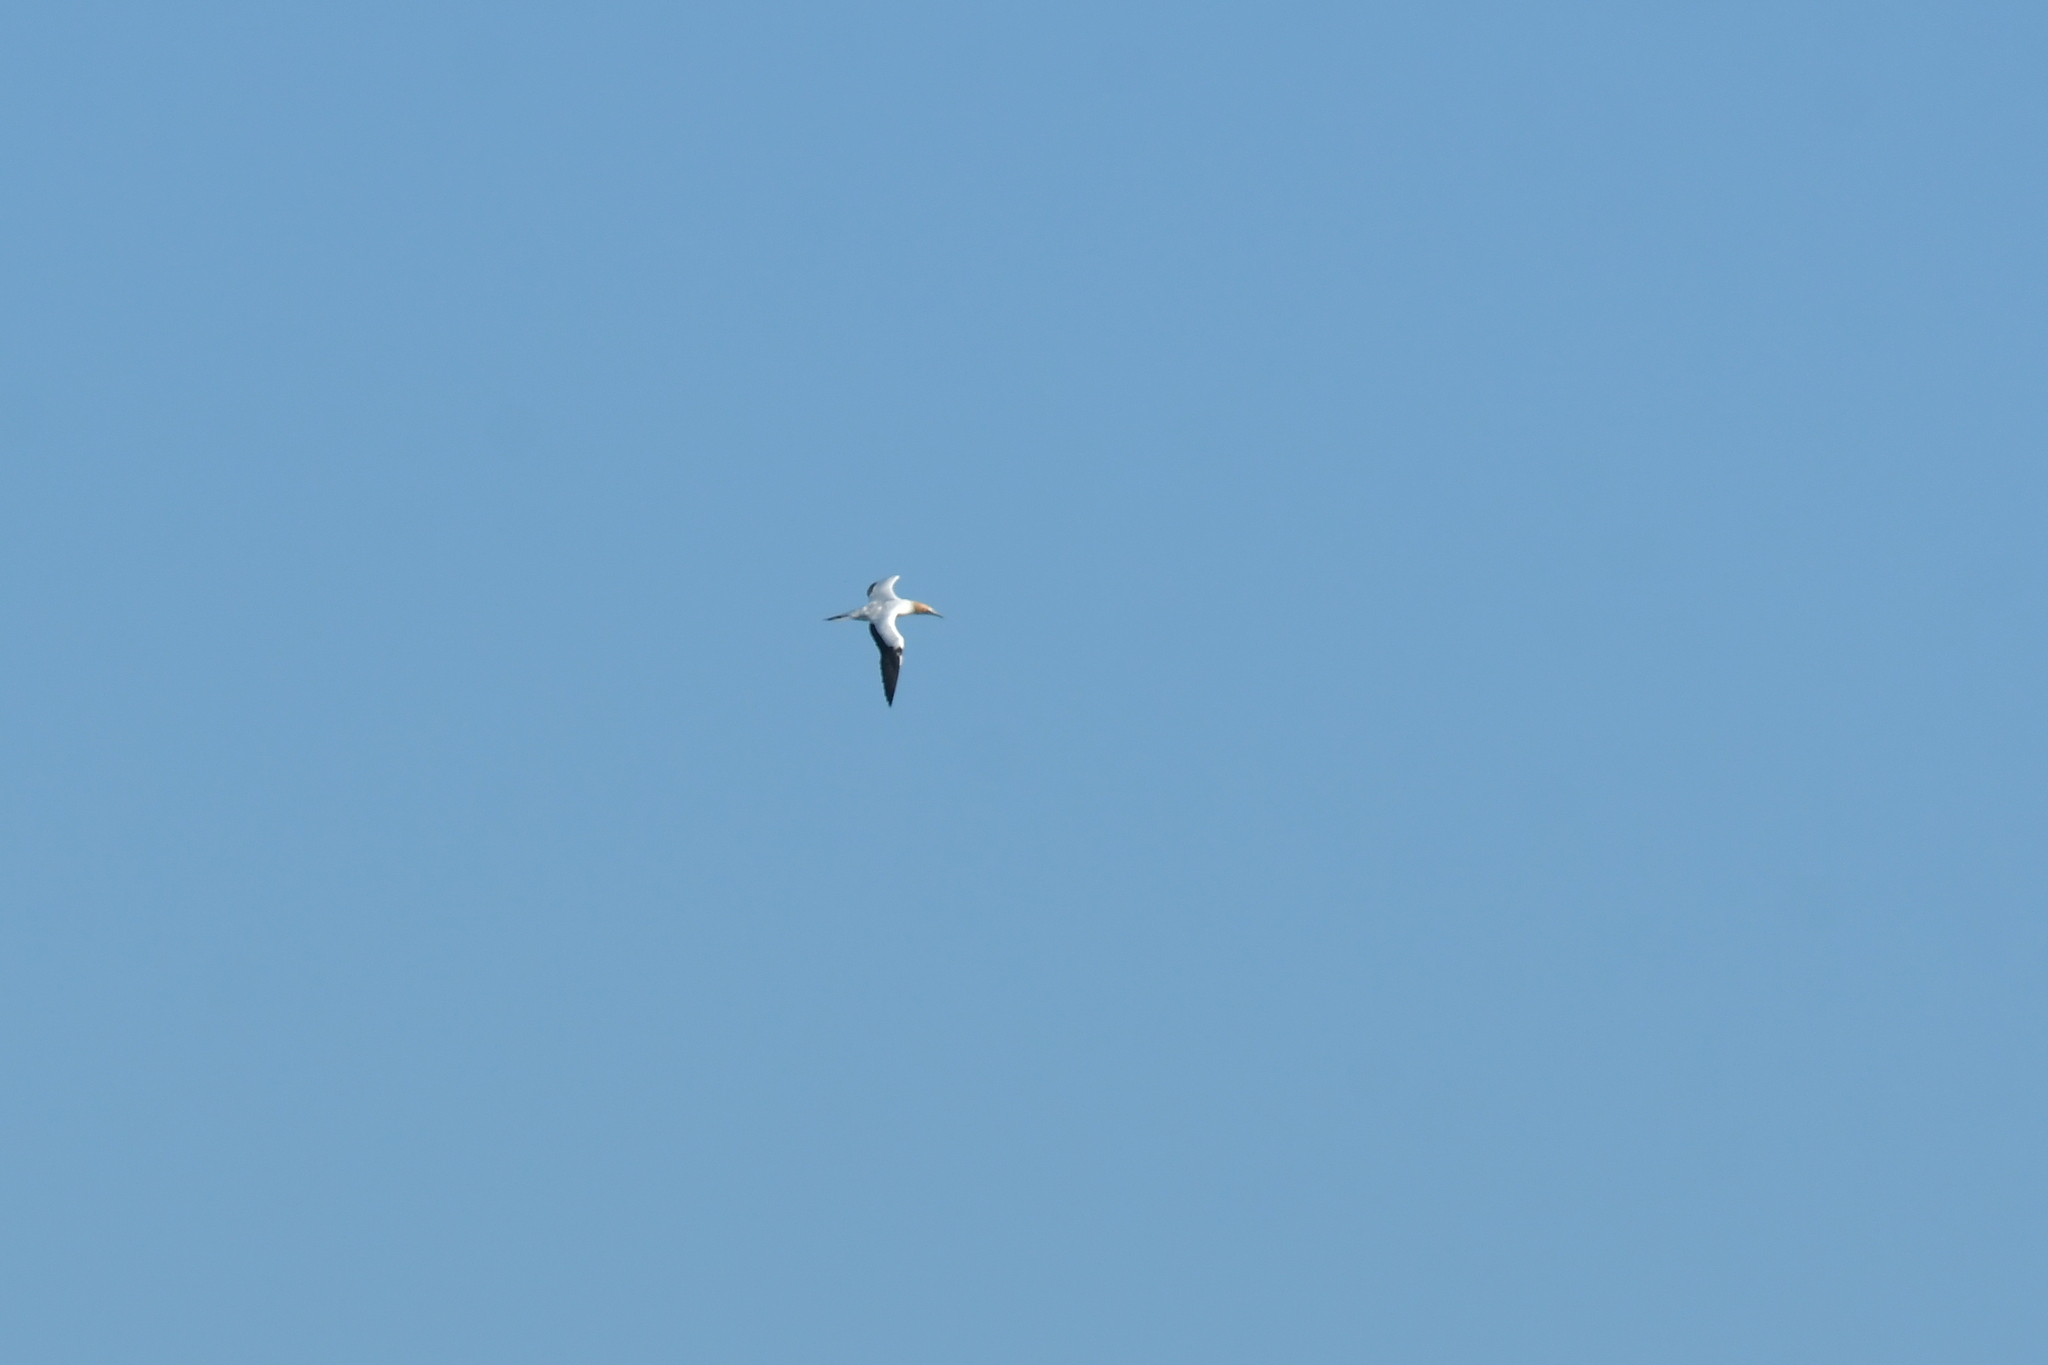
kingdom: Animalia
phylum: Chordata
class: Aves
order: Suliformes
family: Sulidae
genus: Morus
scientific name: Morus serrator
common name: Australasian gannet
